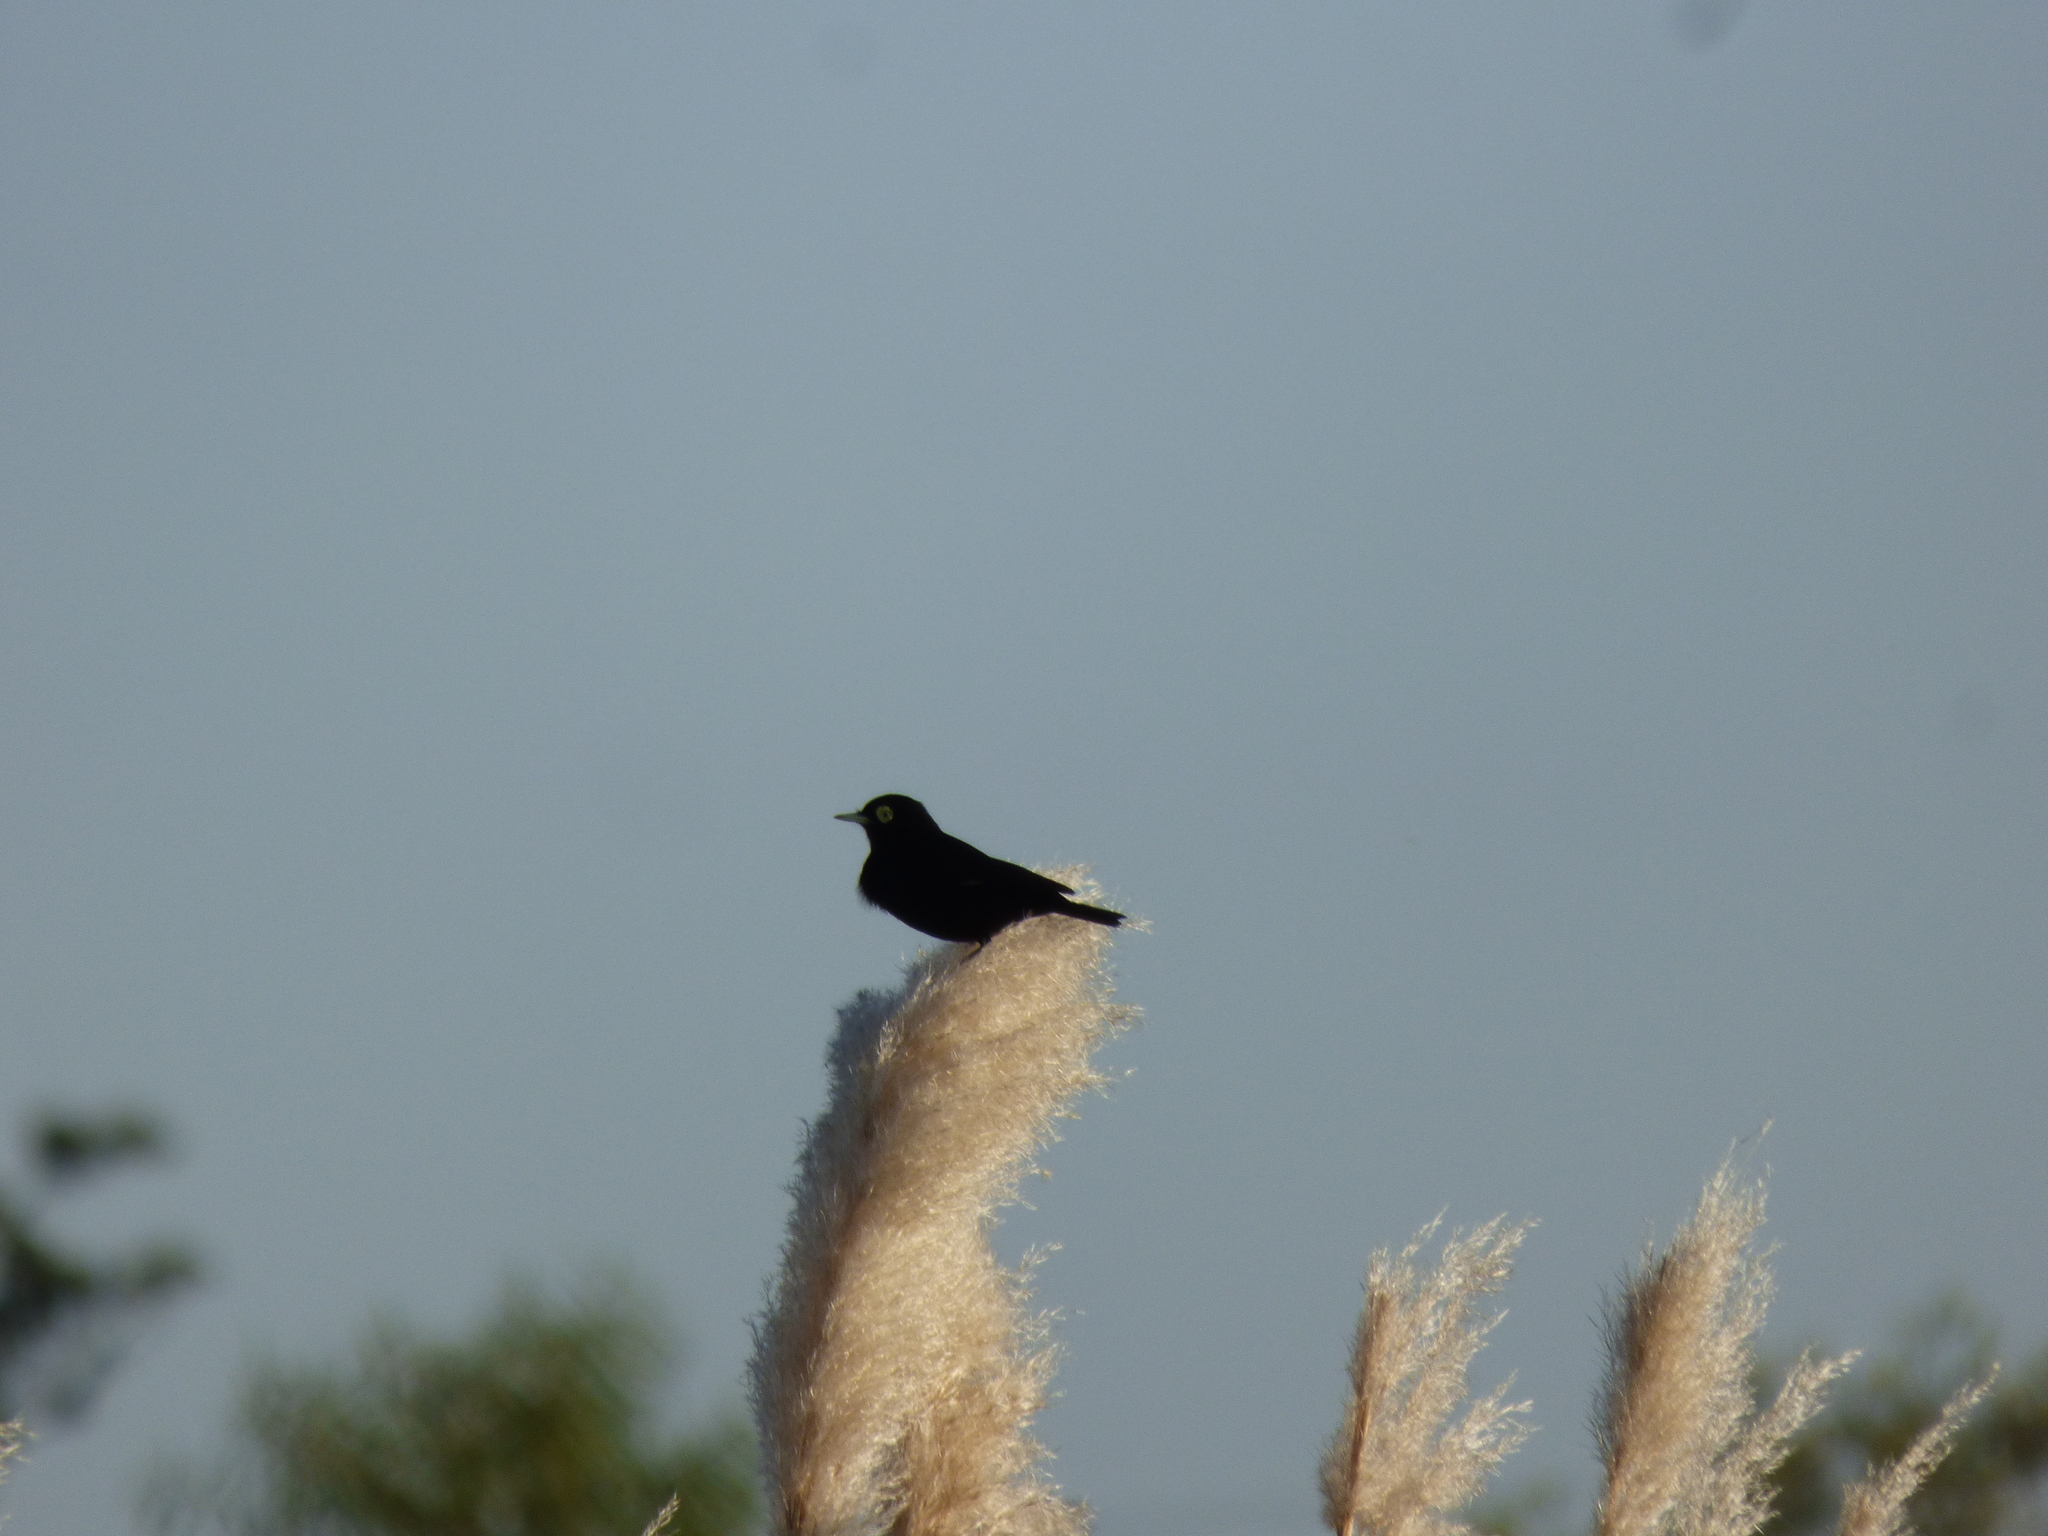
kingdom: Animalia
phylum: Chordata
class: Aves
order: Passeriformes
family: Tyrannidae
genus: Hymenops
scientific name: Hymenops perspicillatus
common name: Spectacled tyrant
